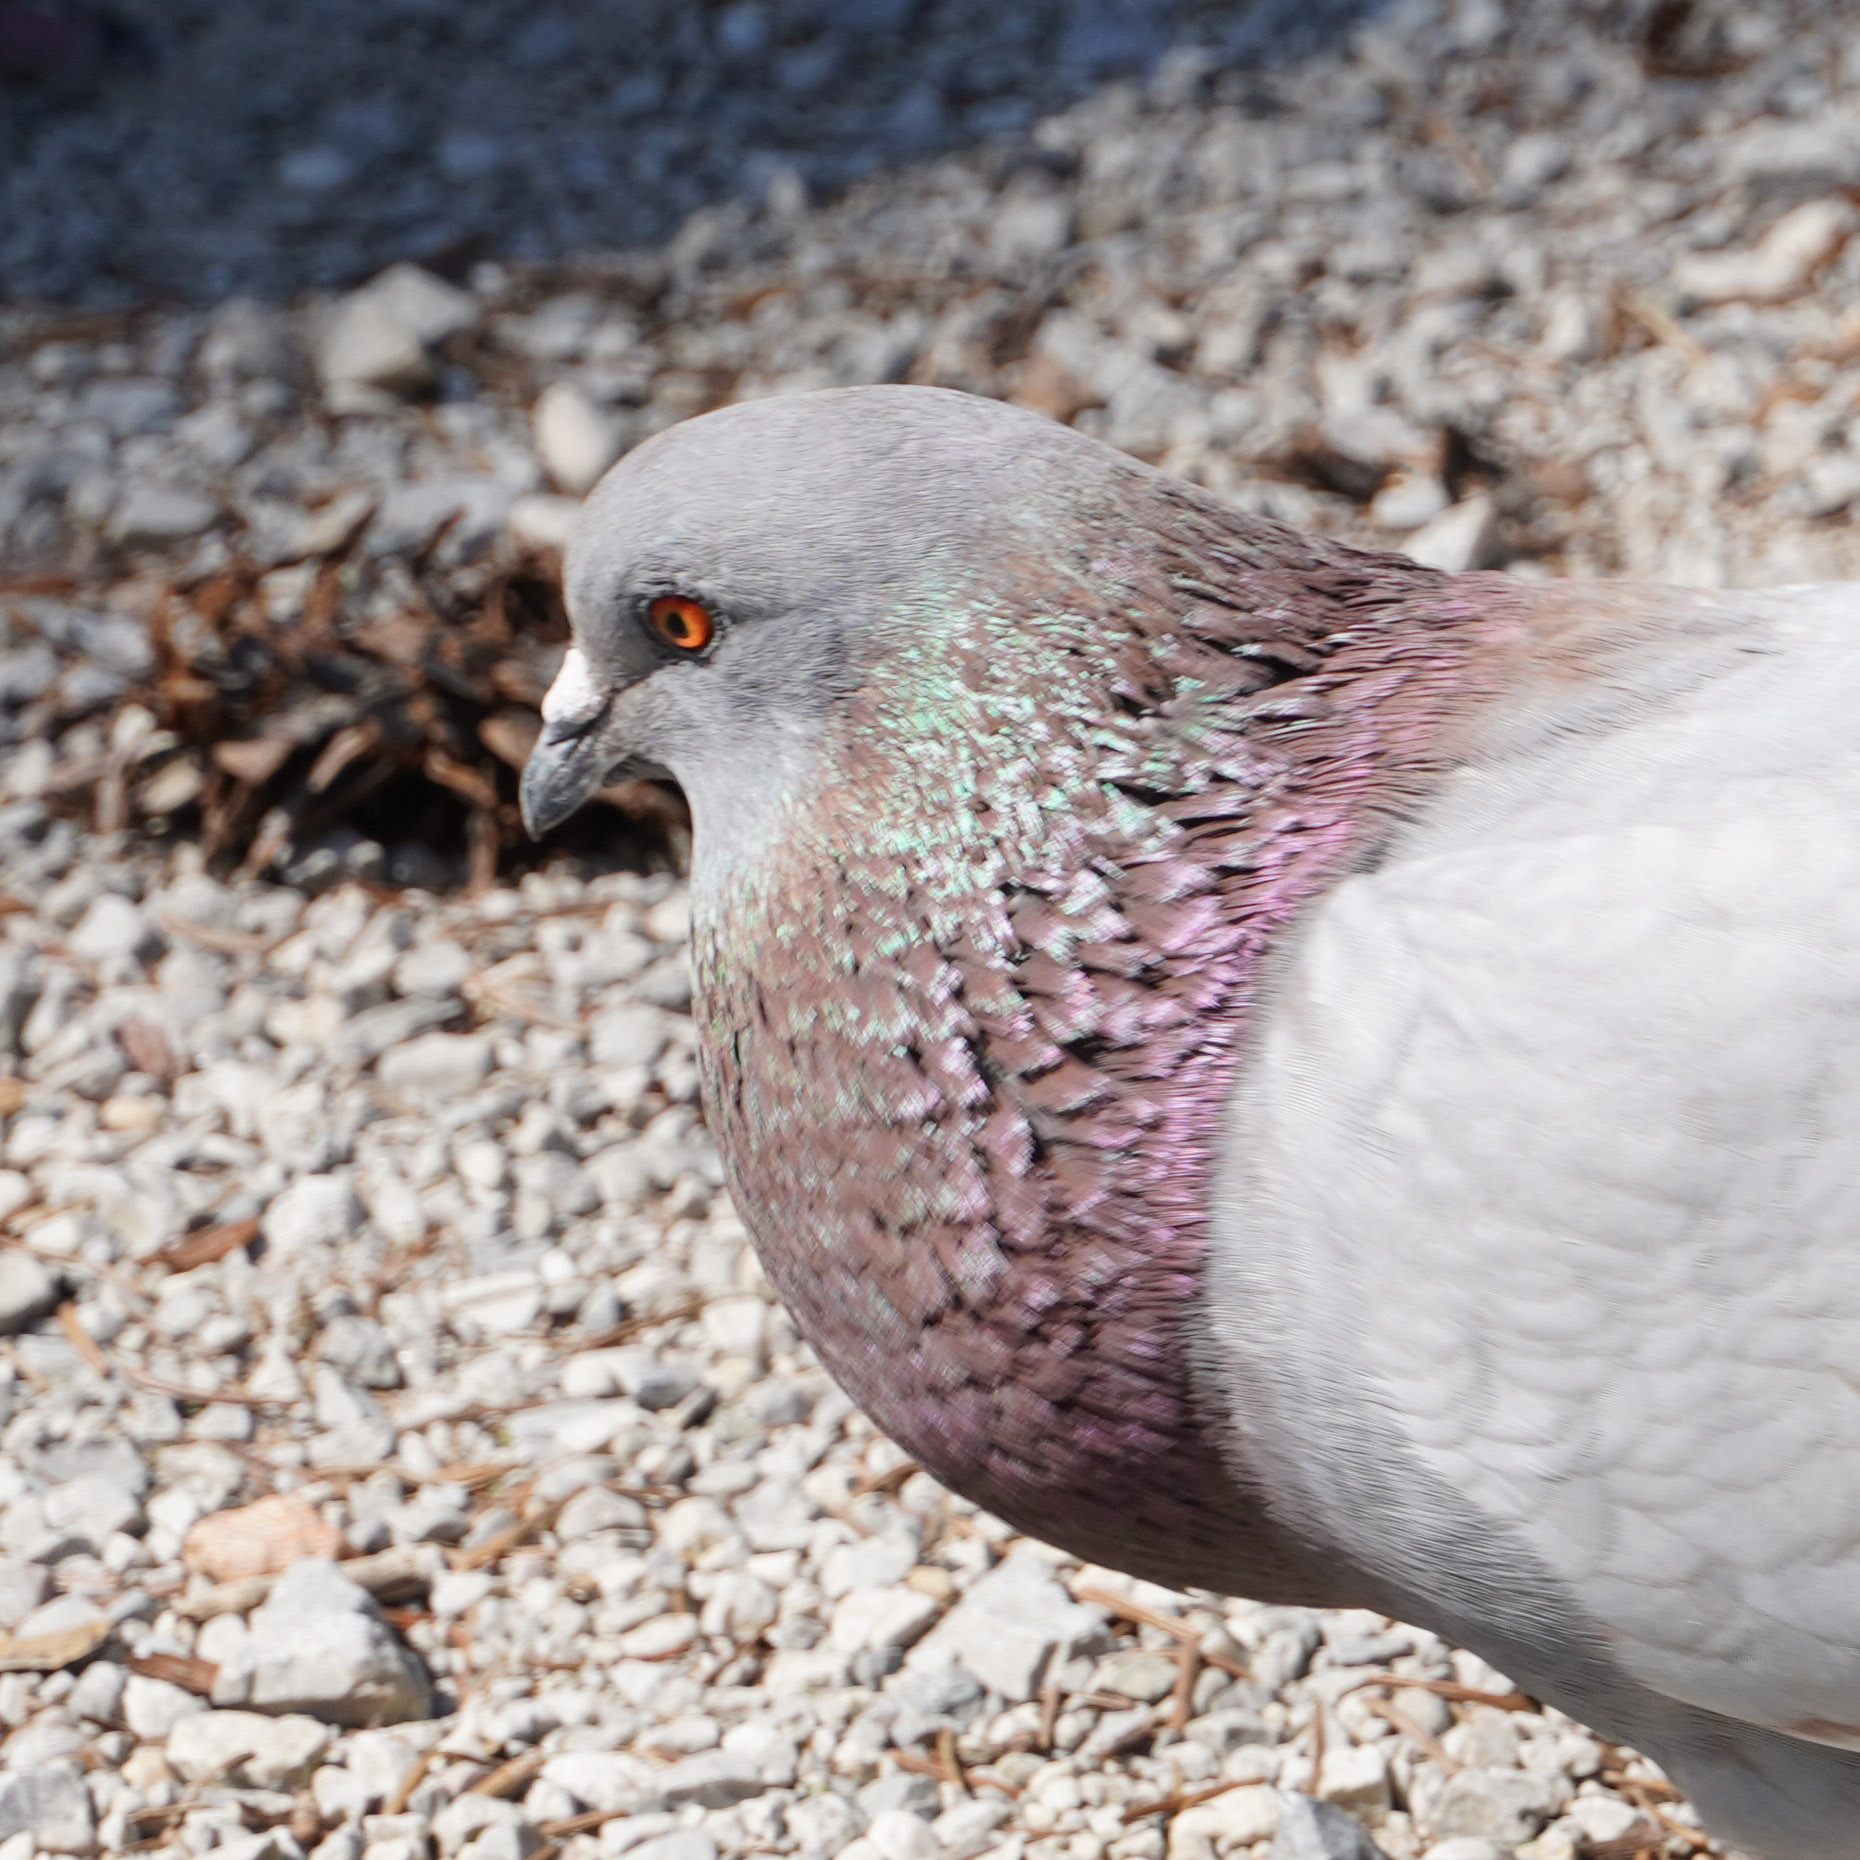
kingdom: Animalia
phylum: Chordata
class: Aves
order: Columbiformes
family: Columbidae
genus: Columba
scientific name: Columba livia
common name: Rock pigeon
